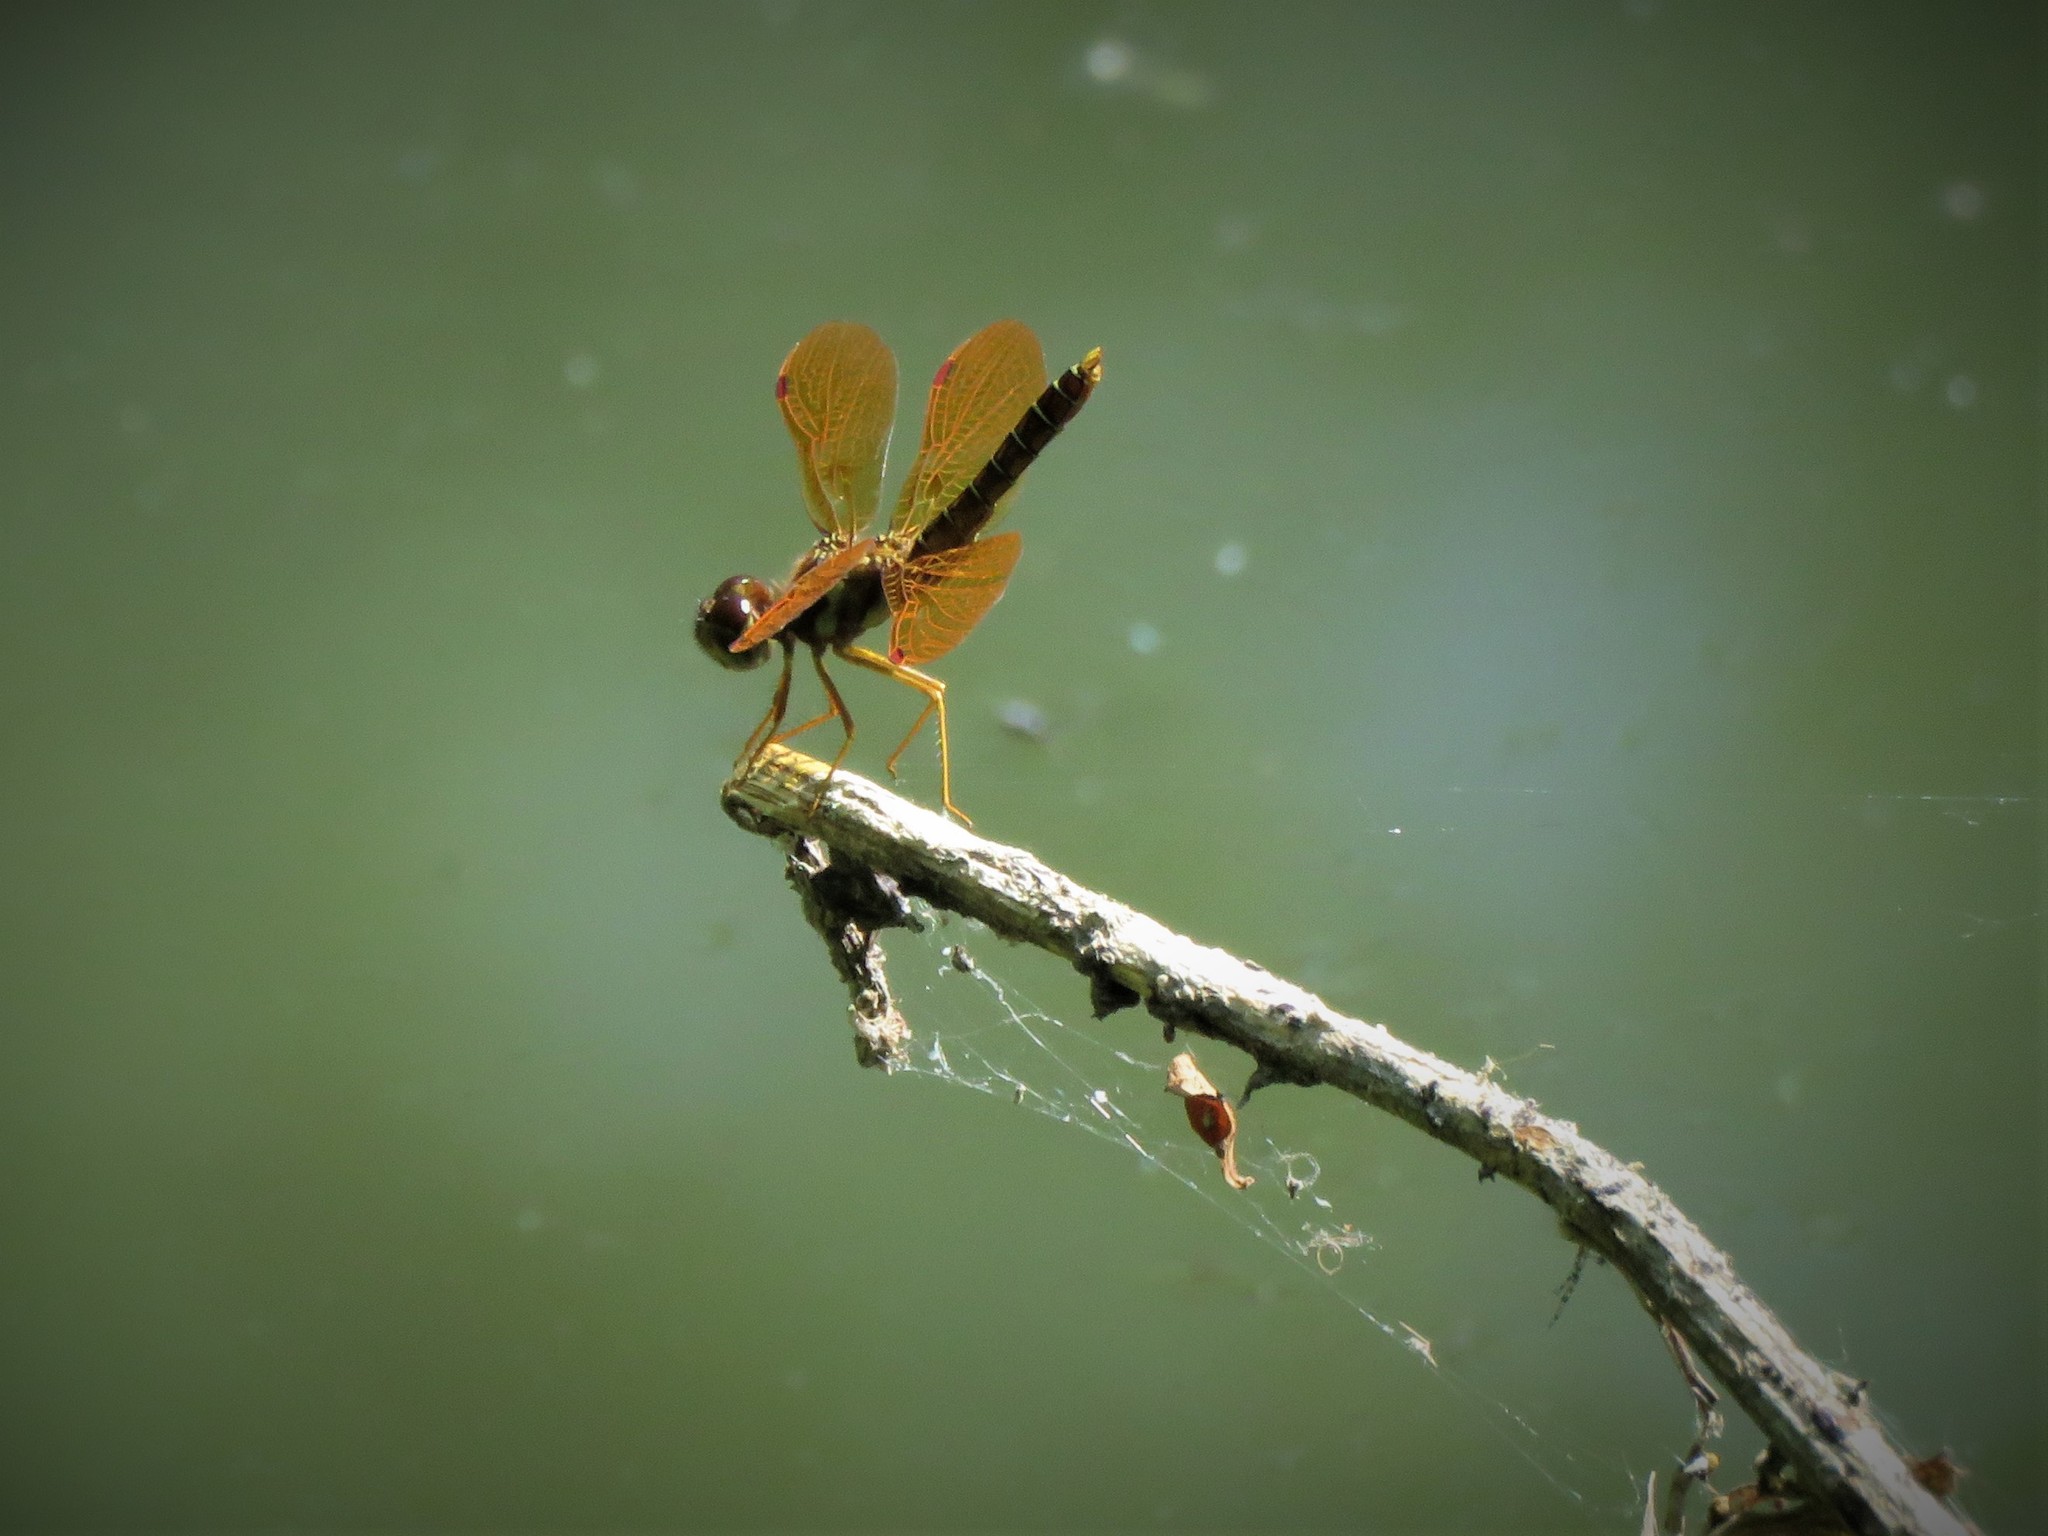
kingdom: Animalia
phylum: Arthropoda
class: Insecta
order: Odonata
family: Libellulidae
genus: Perithemis
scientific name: Perithemis tenera
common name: Eastern amberwing
